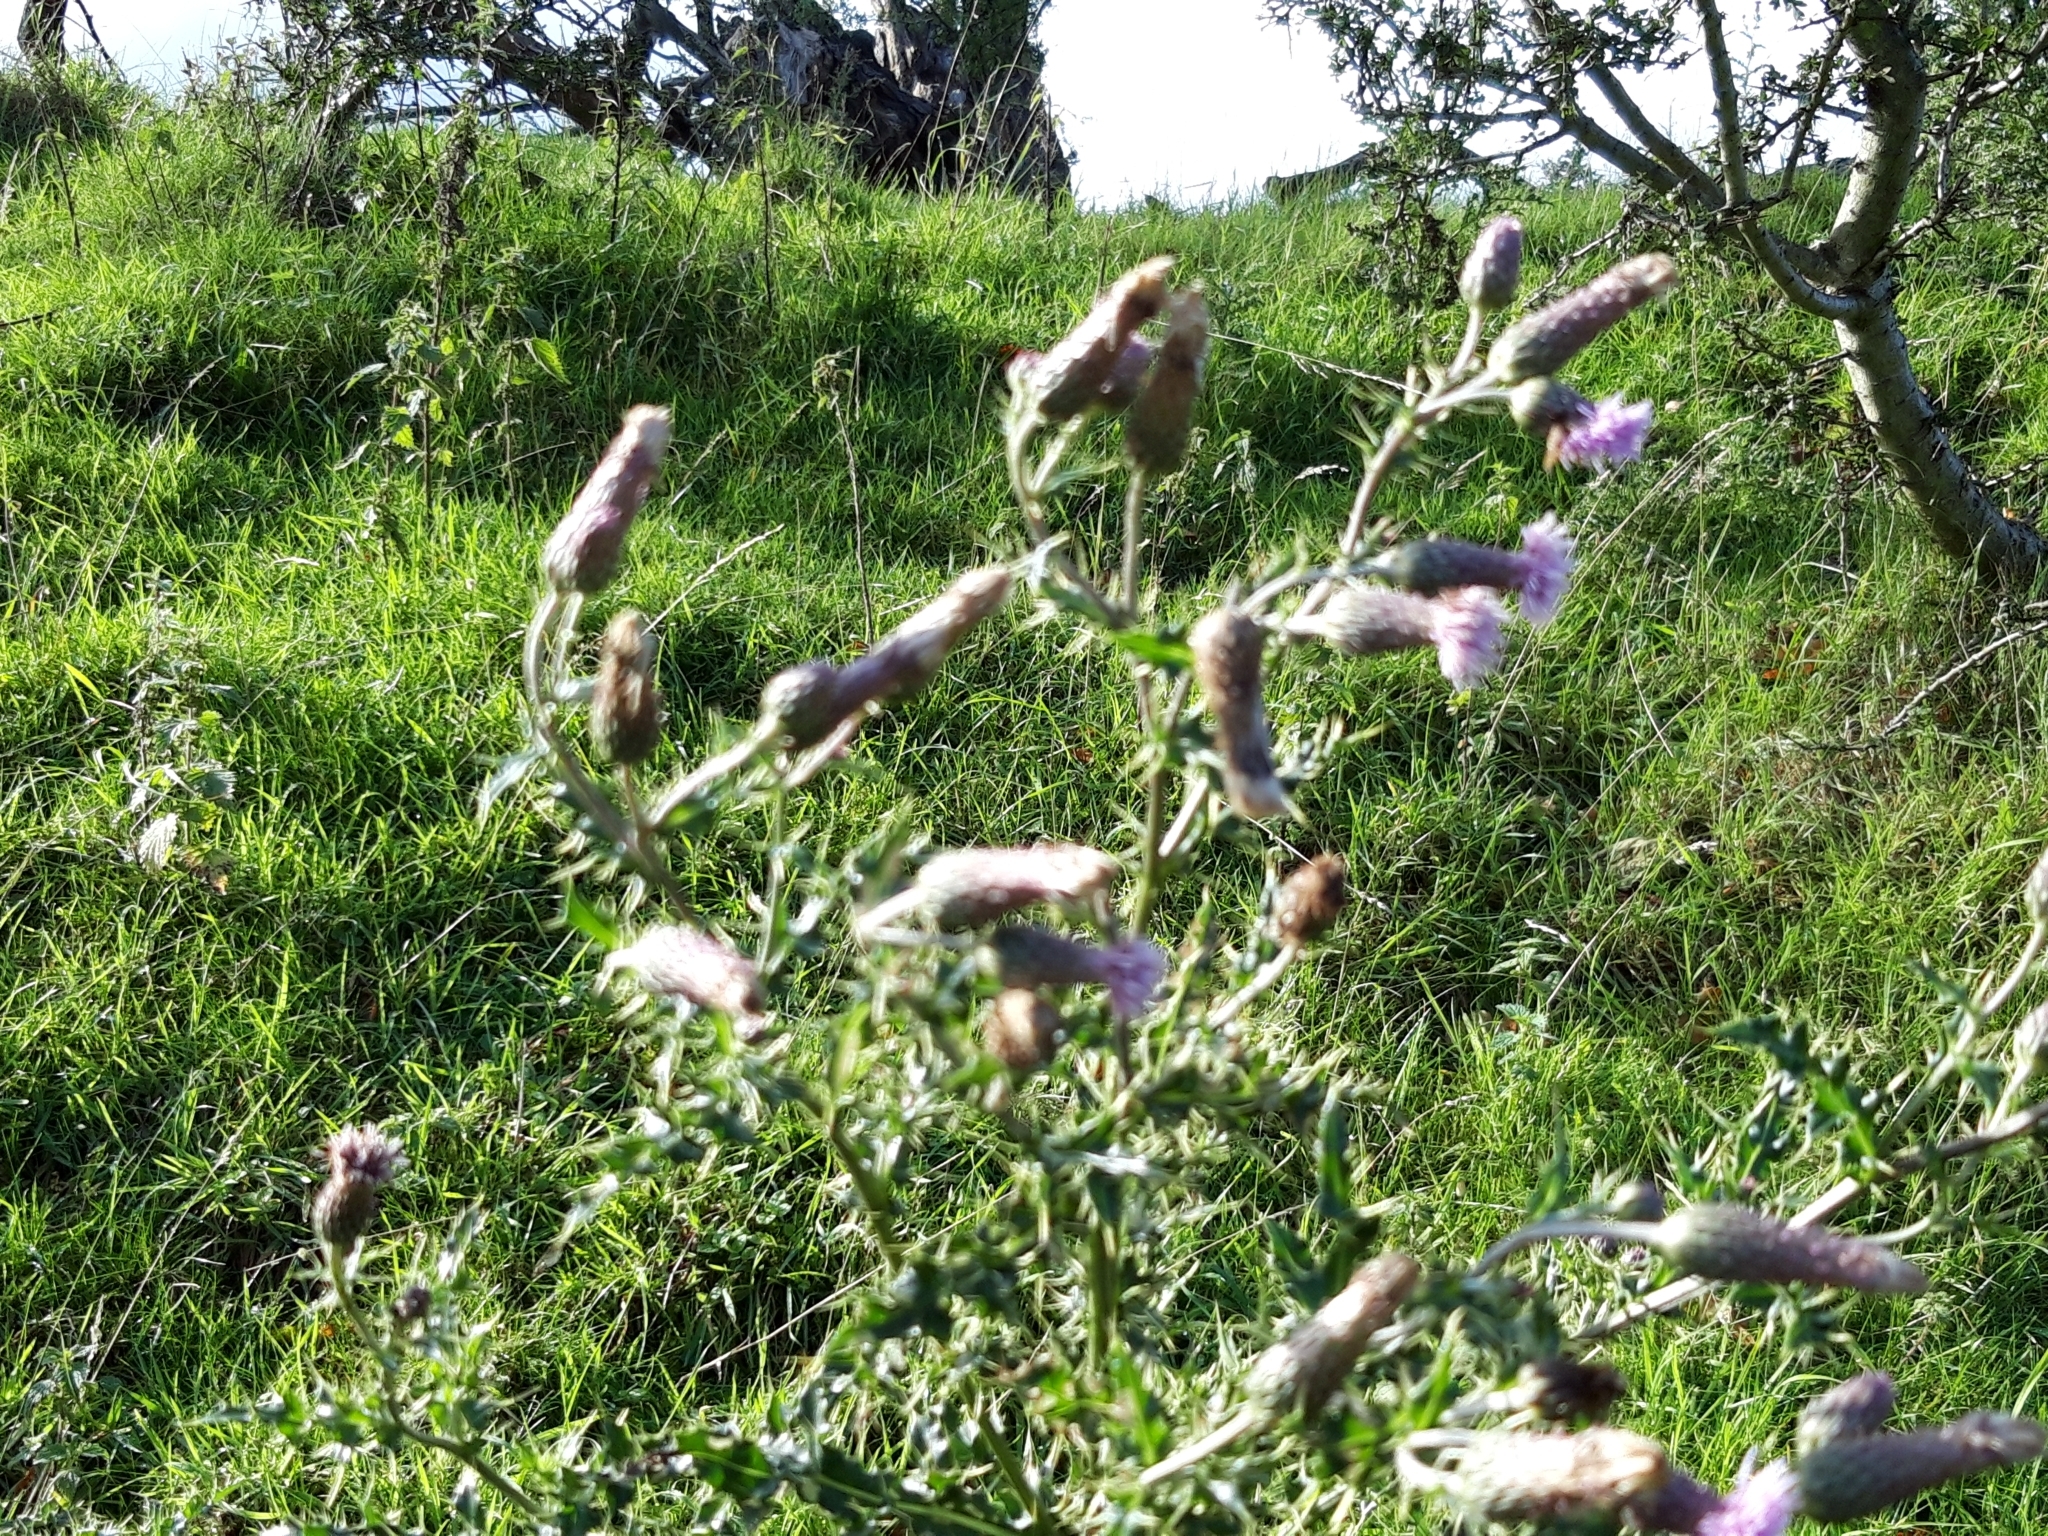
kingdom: Plantae
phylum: Tracheophyta
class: Magnoliopsida
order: Asterales
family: Asteraceae
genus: Cirsium
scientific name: Cirsium arvense
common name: Creeping thistle
